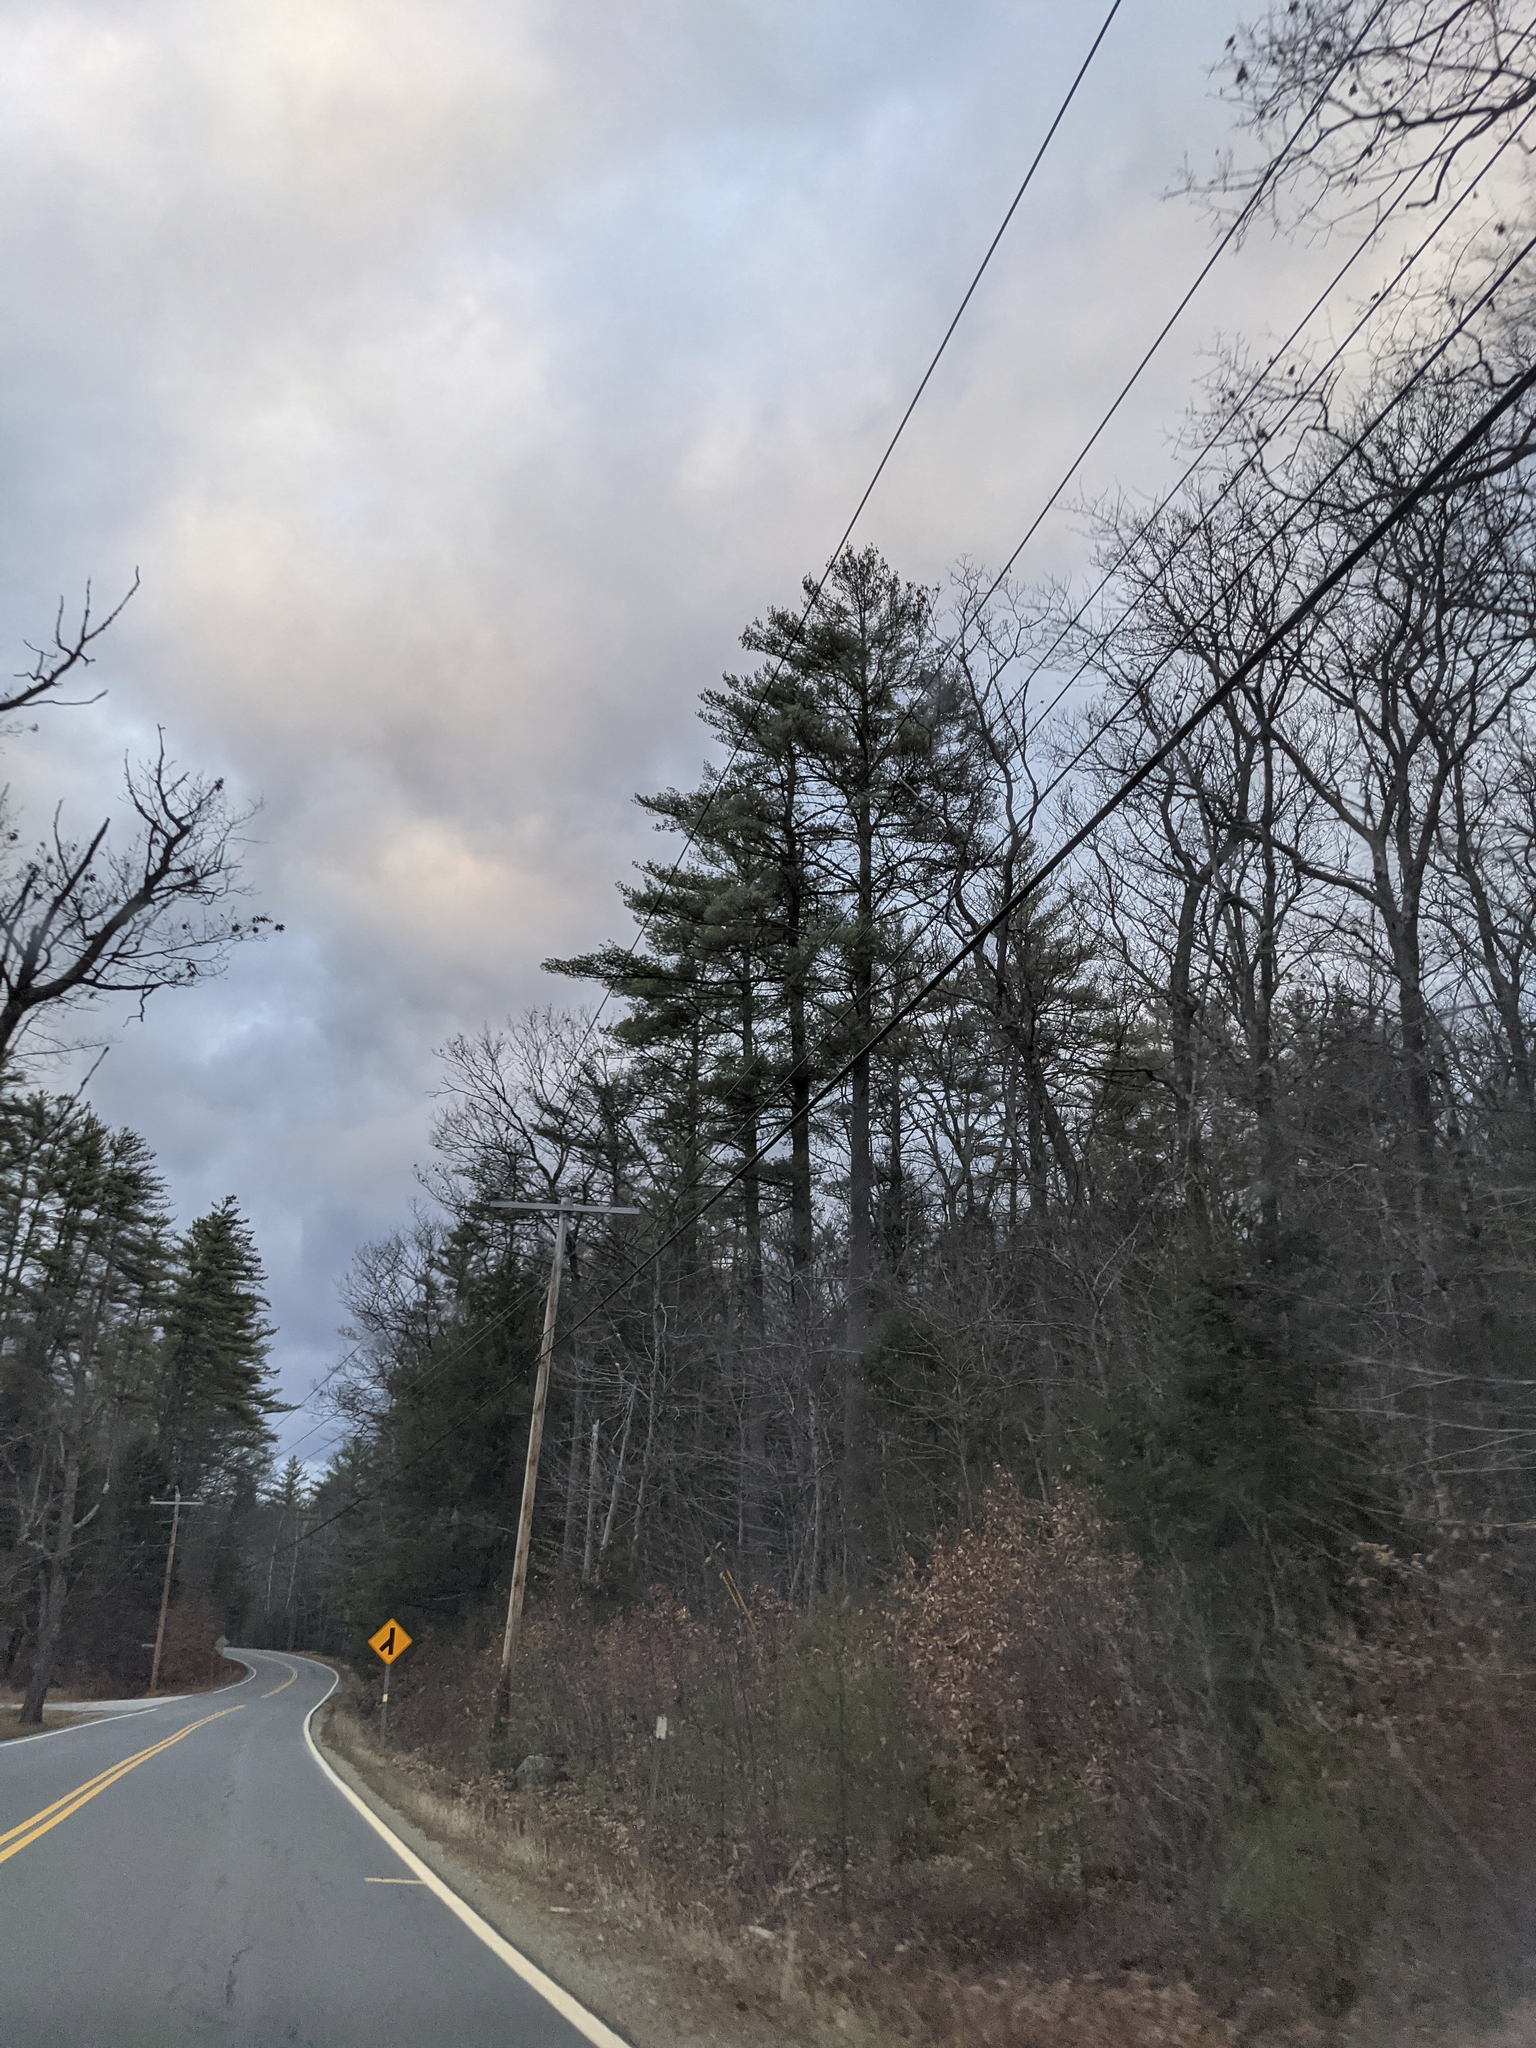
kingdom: Plantae
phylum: Tracheophyta
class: Pinopsida
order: Pinales
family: Pinaceae
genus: Pinus
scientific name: Pinus strobus
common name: Weymouth pine
